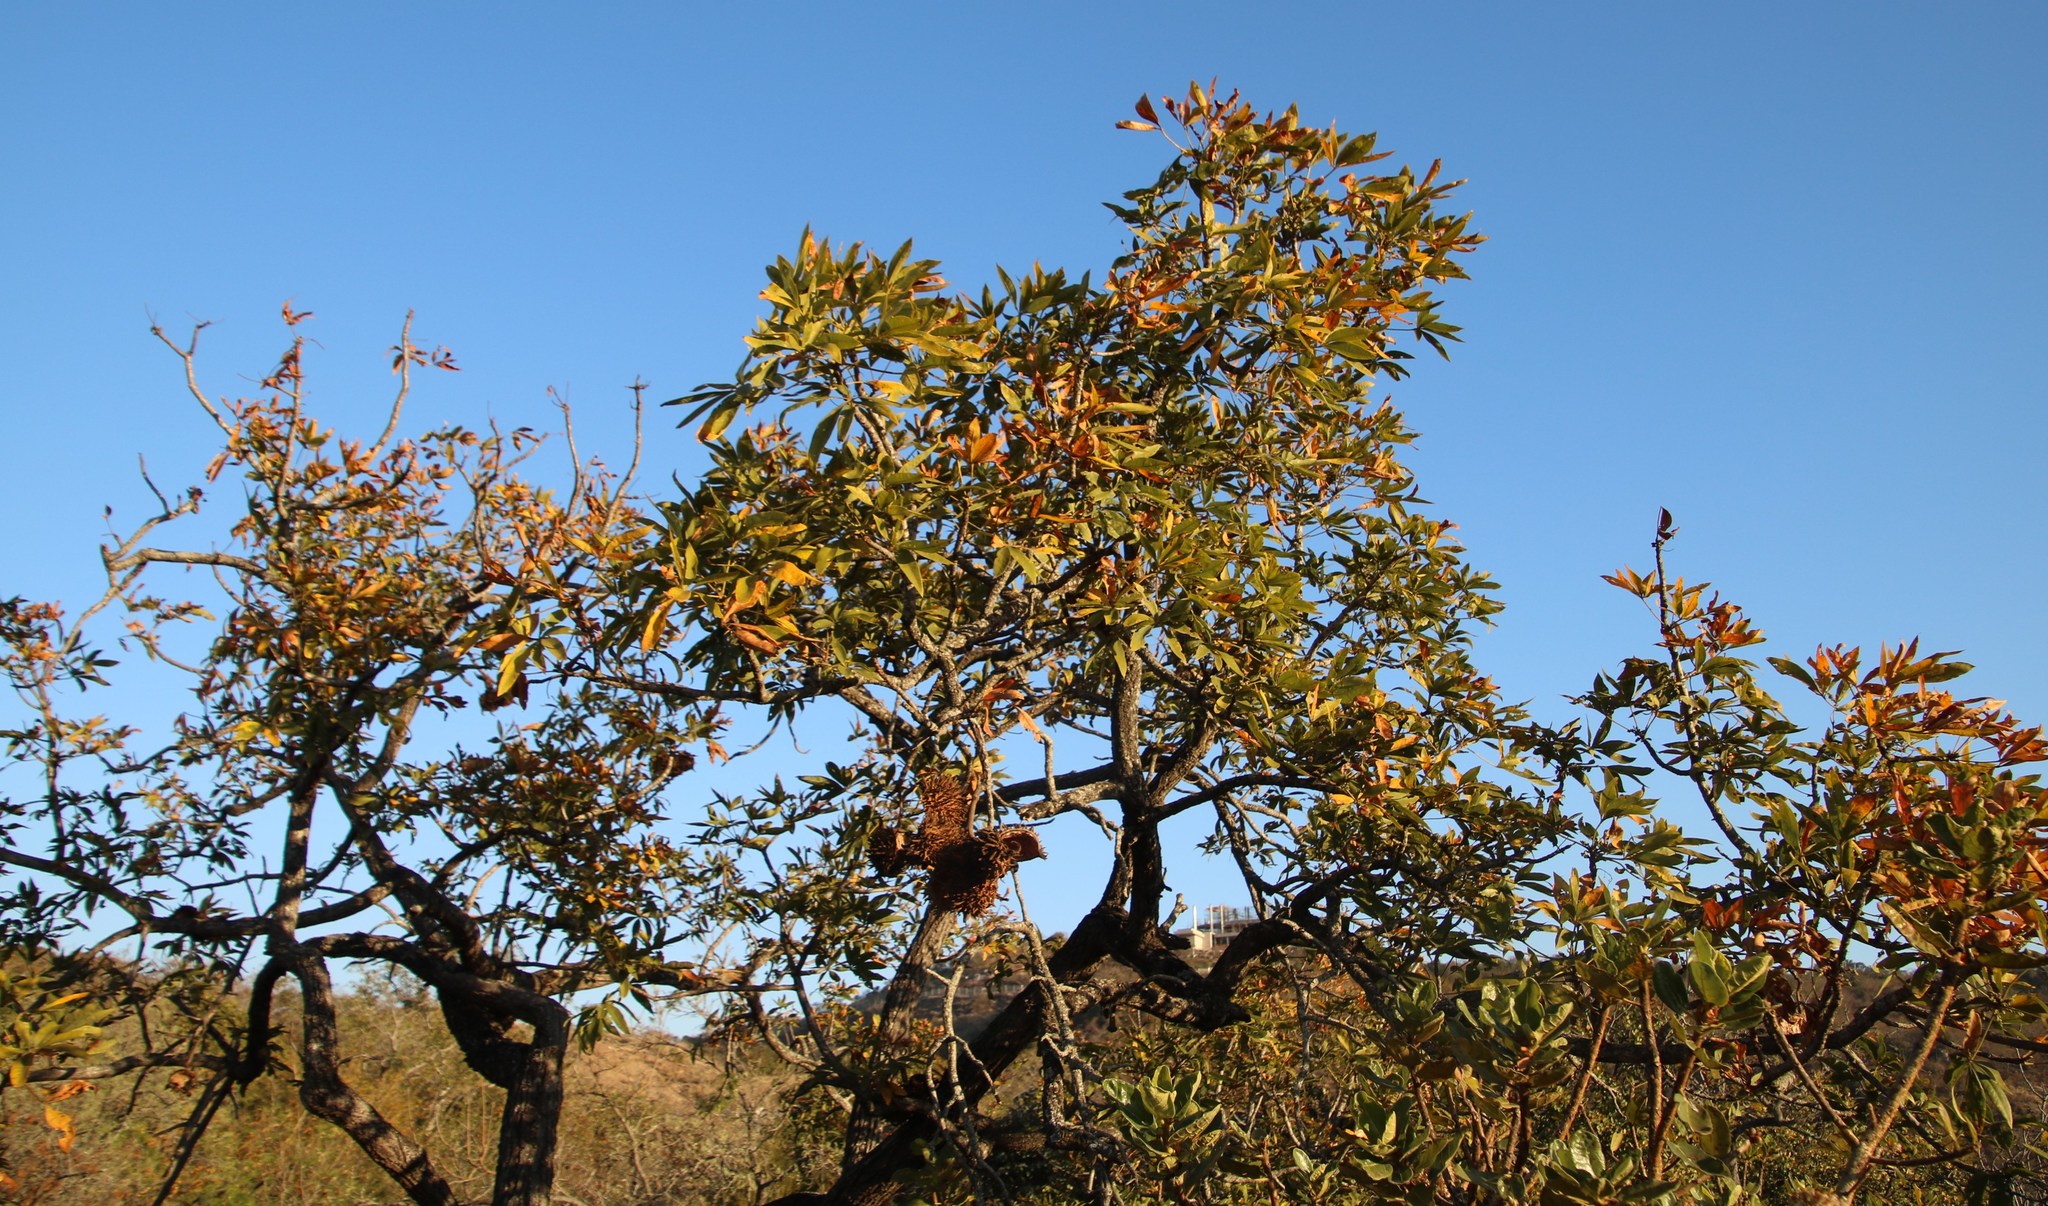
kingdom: Plantae
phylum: Tracheophyta
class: Magnoliopsida
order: Malvales
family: Malvaceae
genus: Sterculia
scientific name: Sterculia murex
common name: Lowveld star-chestnut
